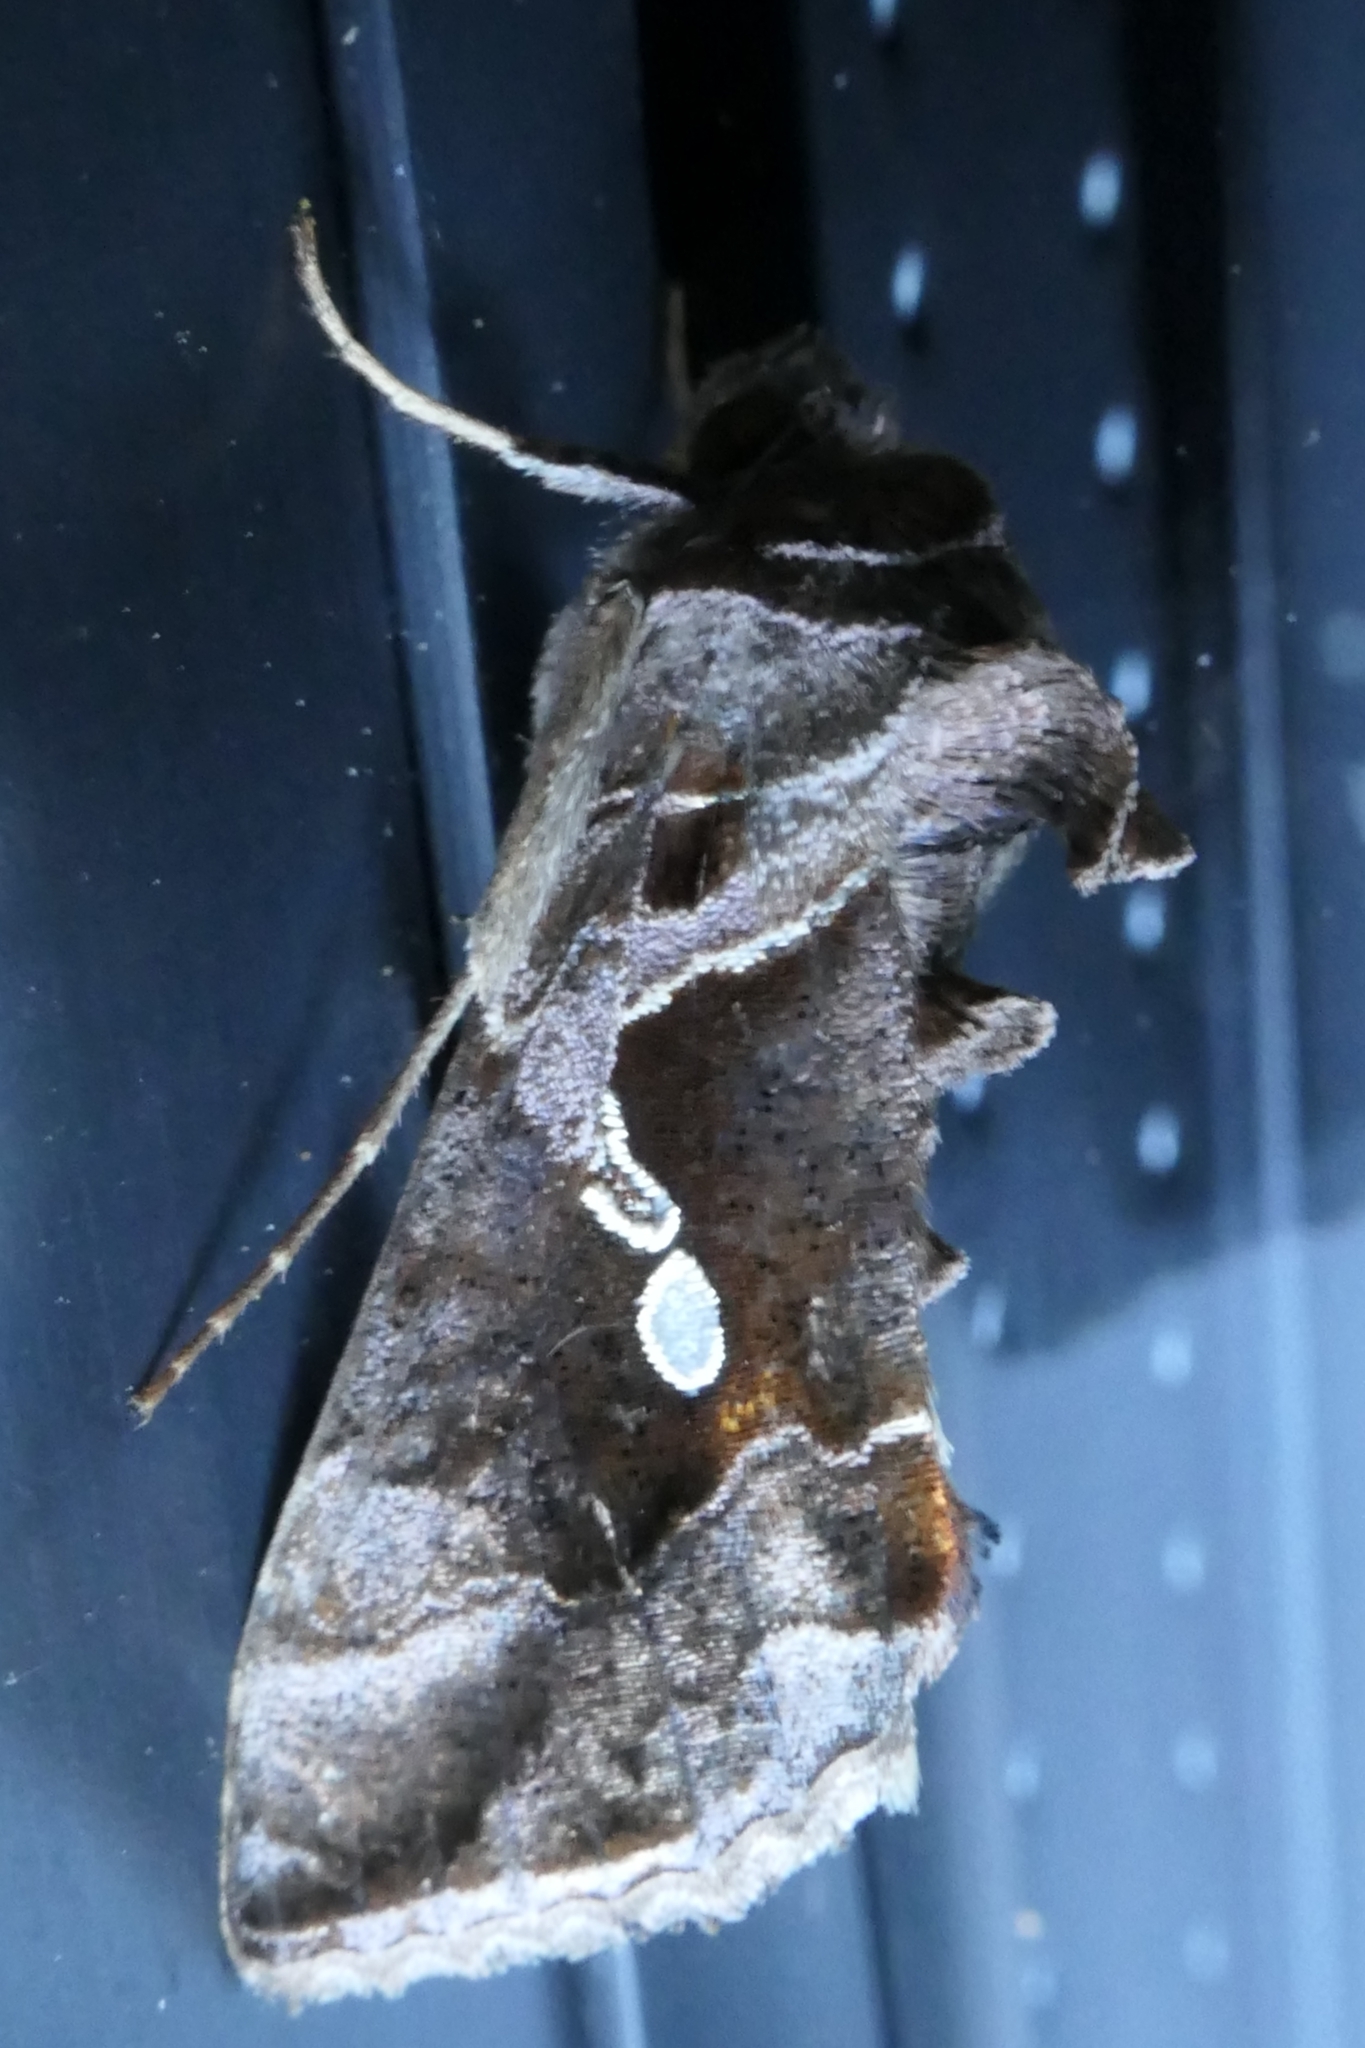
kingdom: Animalia
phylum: Arthropoda
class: Insecta
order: Lepidoptera
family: Noctuidae
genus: Chrysodeixis
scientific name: Chrysodeixis eriosoma
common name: Green garden looper
